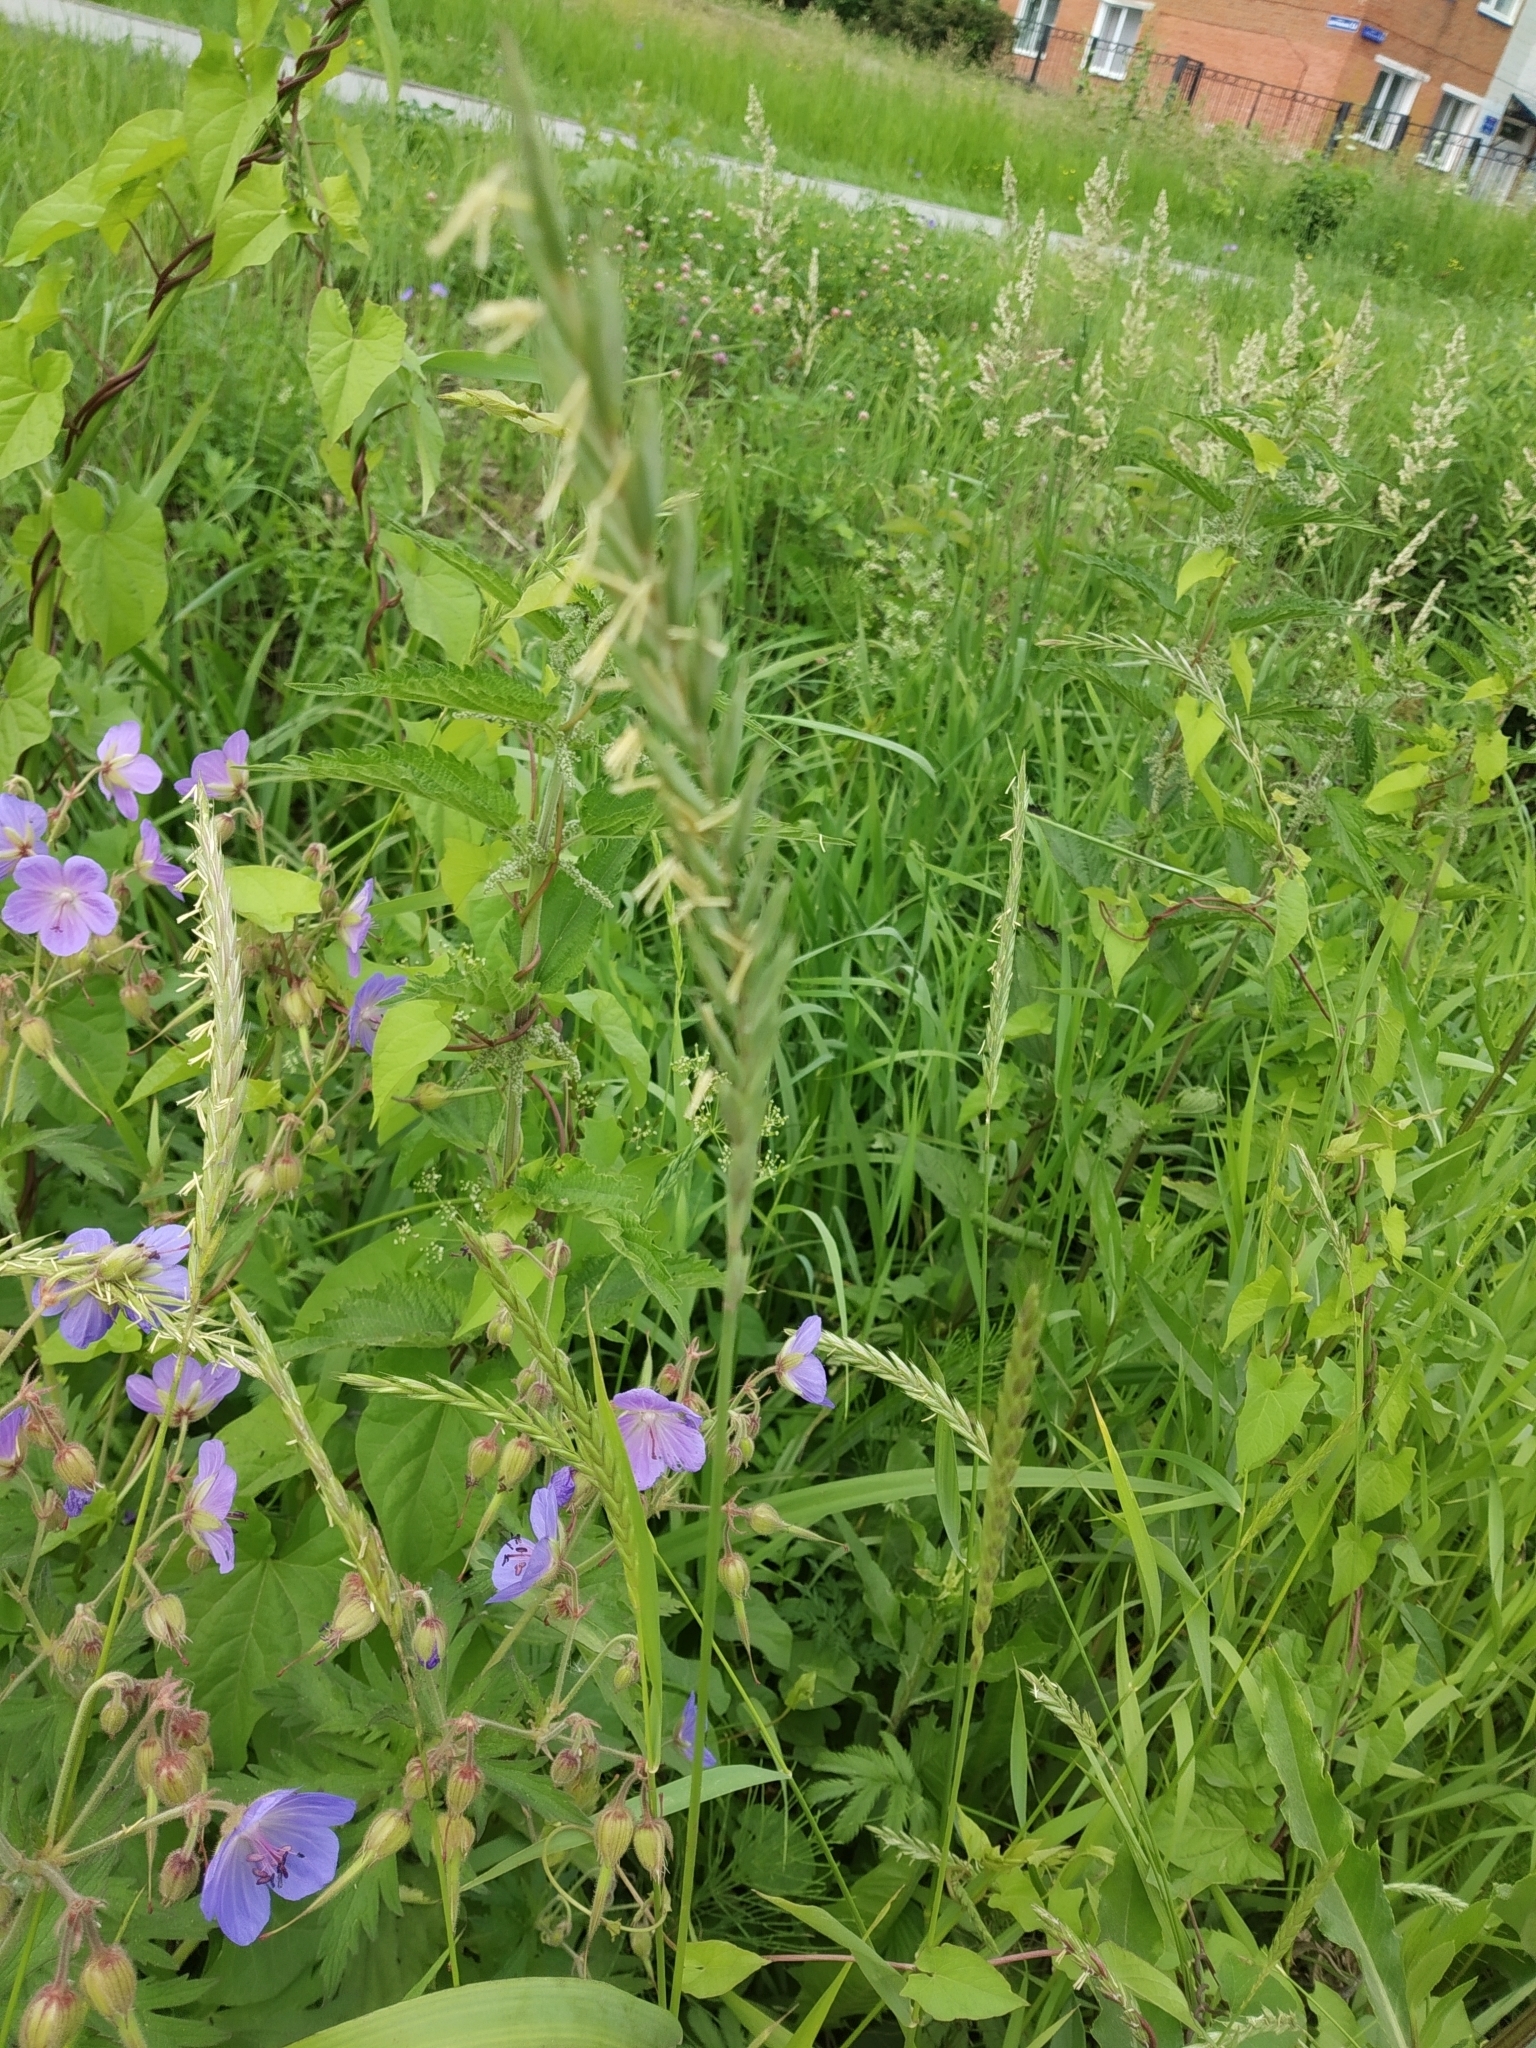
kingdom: Plantae
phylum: Tracheophyta
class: Liliopsida
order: Poales
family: Poaceae
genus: Elymus
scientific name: Elymus repens
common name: Quackgrass
